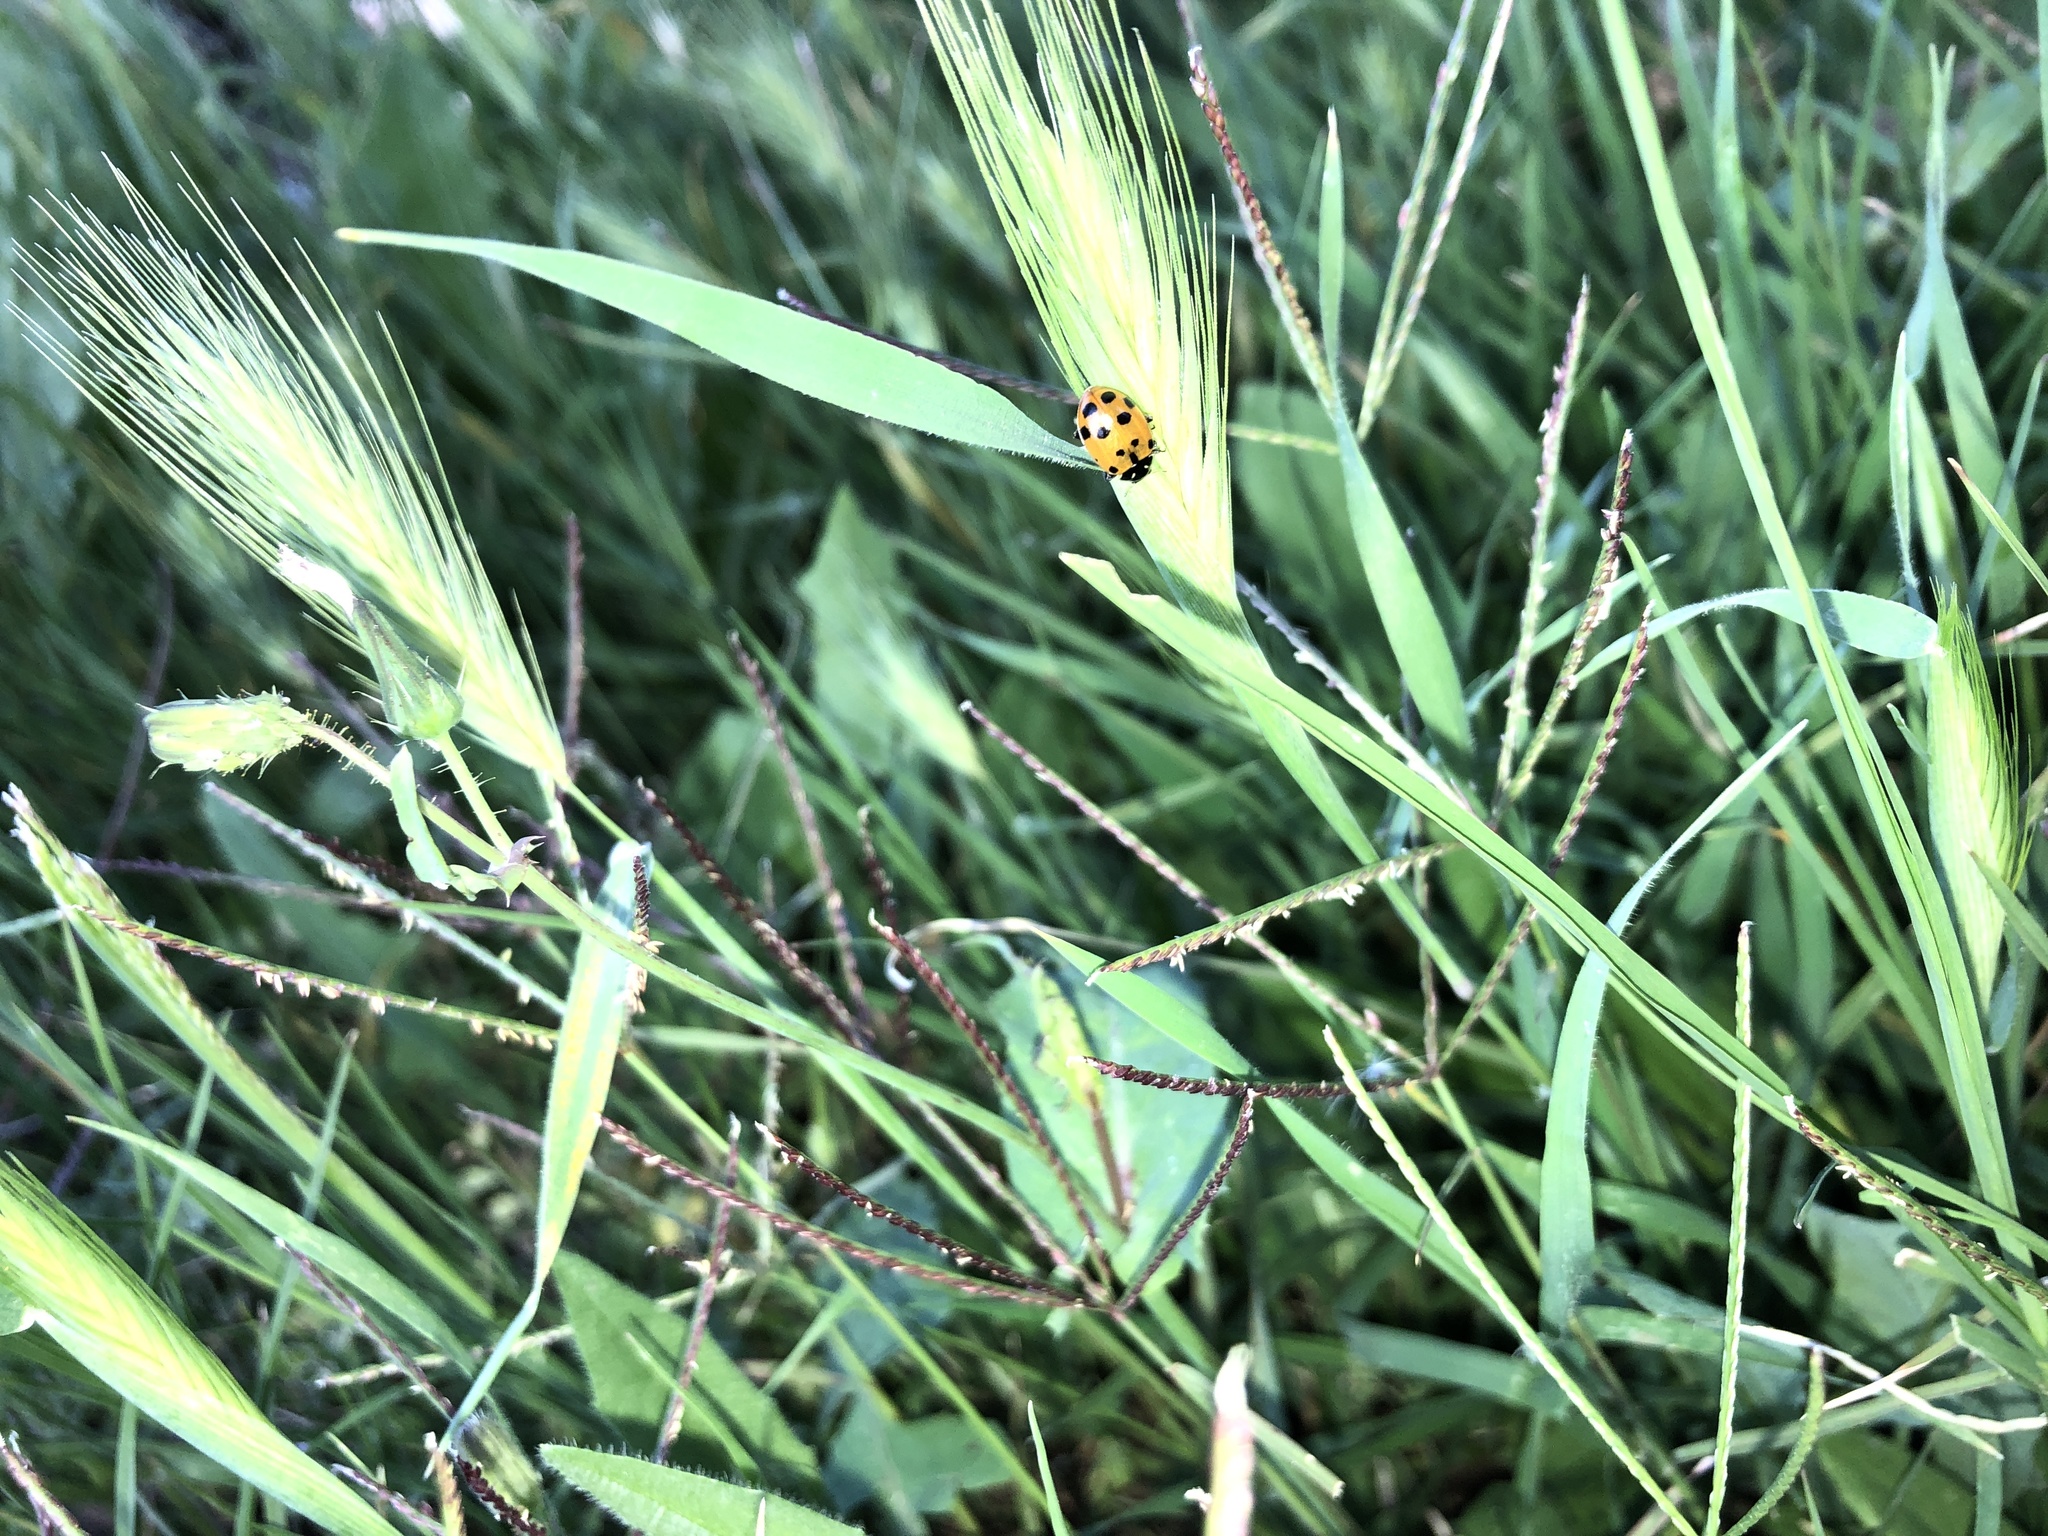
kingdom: Animalia
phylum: Arthropoda
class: Insecta
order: Coleoptera
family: Coccinellidae
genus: Hippodamia
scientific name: Hippodamia convergens
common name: Convergent lady beetle
